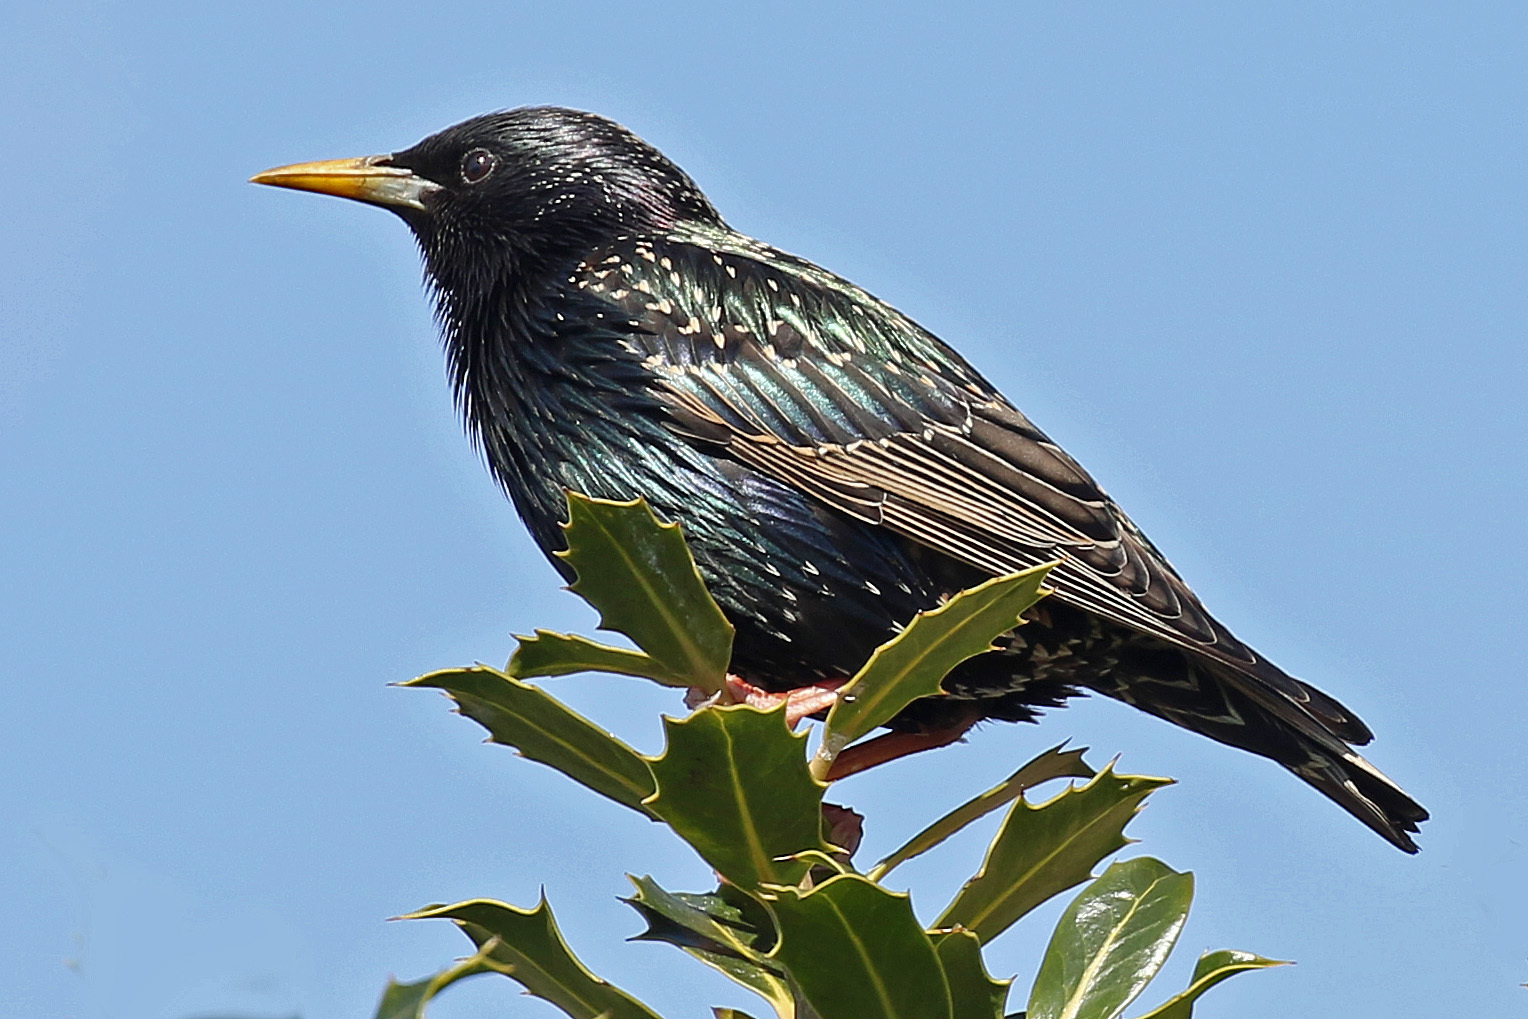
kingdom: Animalia
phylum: Chordata
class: Aves
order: Passeriformes
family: Sturnidae
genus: Sturnus
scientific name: Sturnus vulgaris
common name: Common starling
